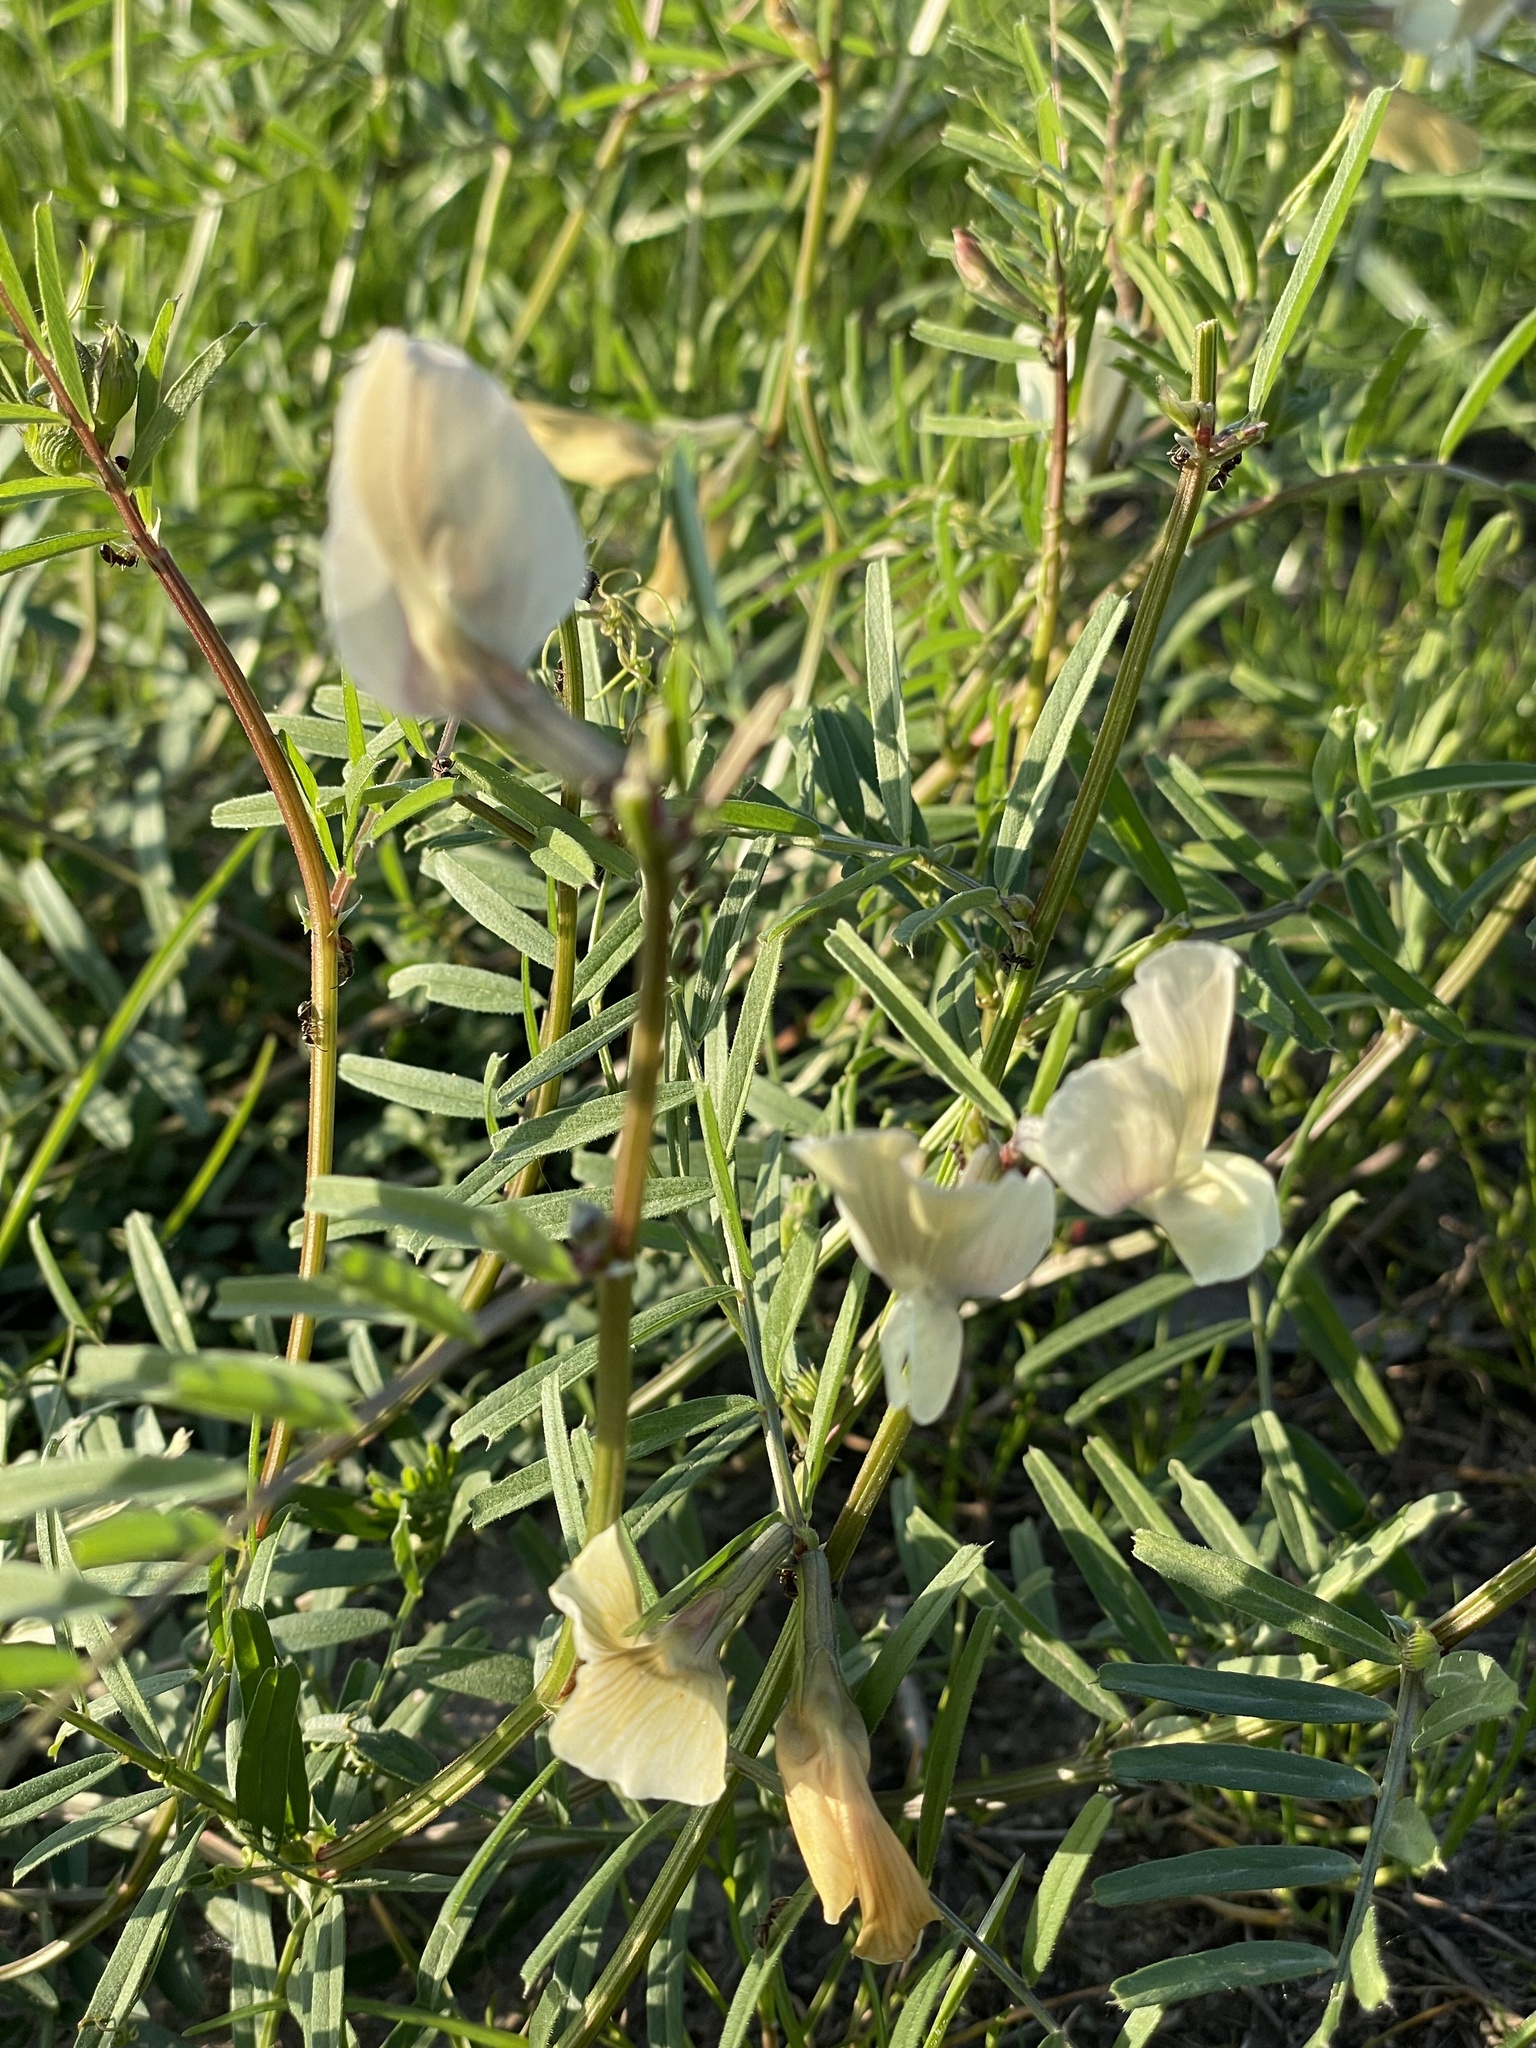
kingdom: Plantae
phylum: Tracheophyta
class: Magnoliopsida
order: Fabales
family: Fabaceae
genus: Vicia
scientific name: Vicia grandiflora
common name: Large yellow vetch
